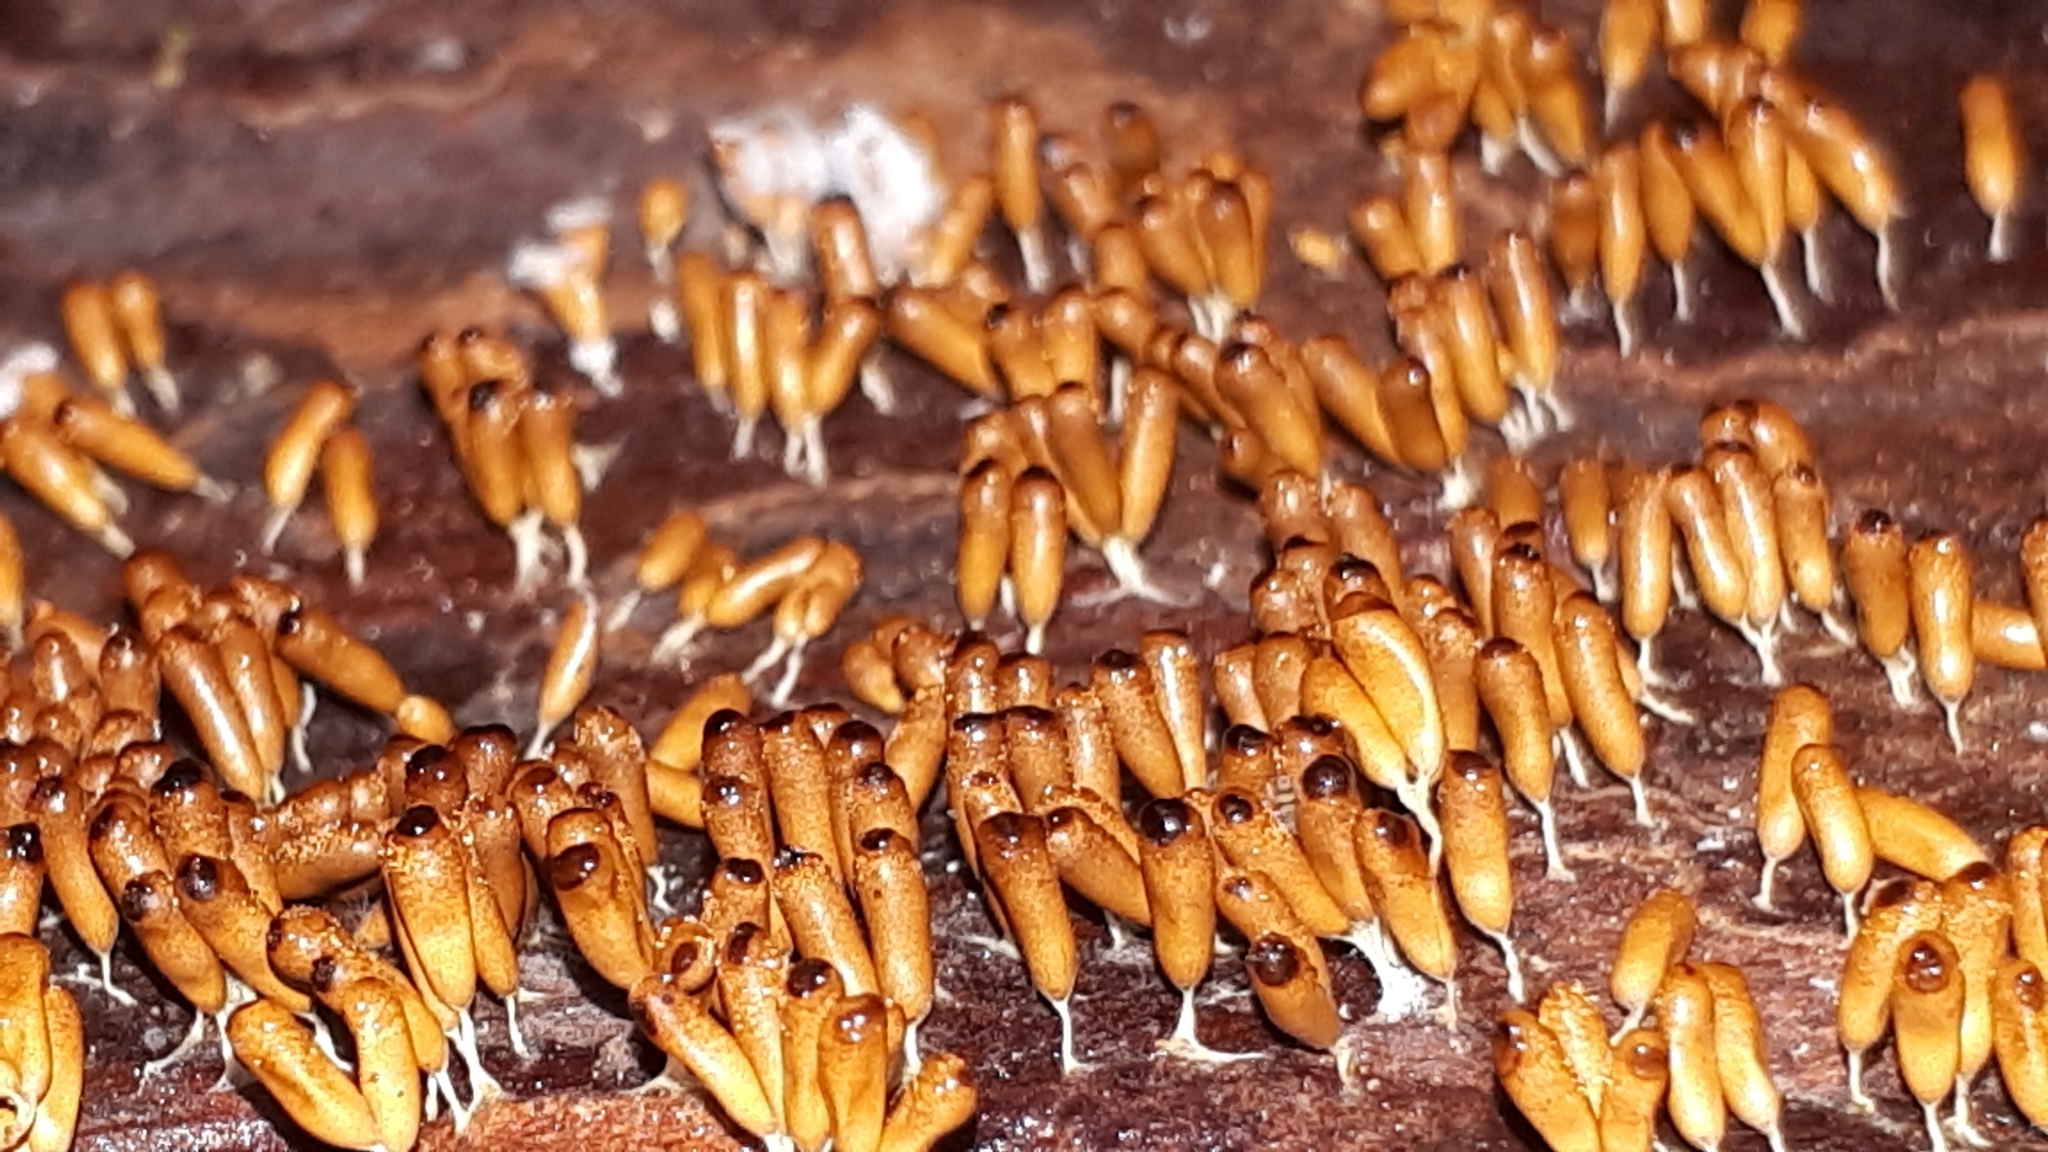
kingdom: Protozoa
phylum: Mycetozoa
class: Myxomycetes
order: Physarales
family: Physaraceae
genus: Leocarpus
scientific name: Leocarpus fragilis
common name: Insect-egg slime
